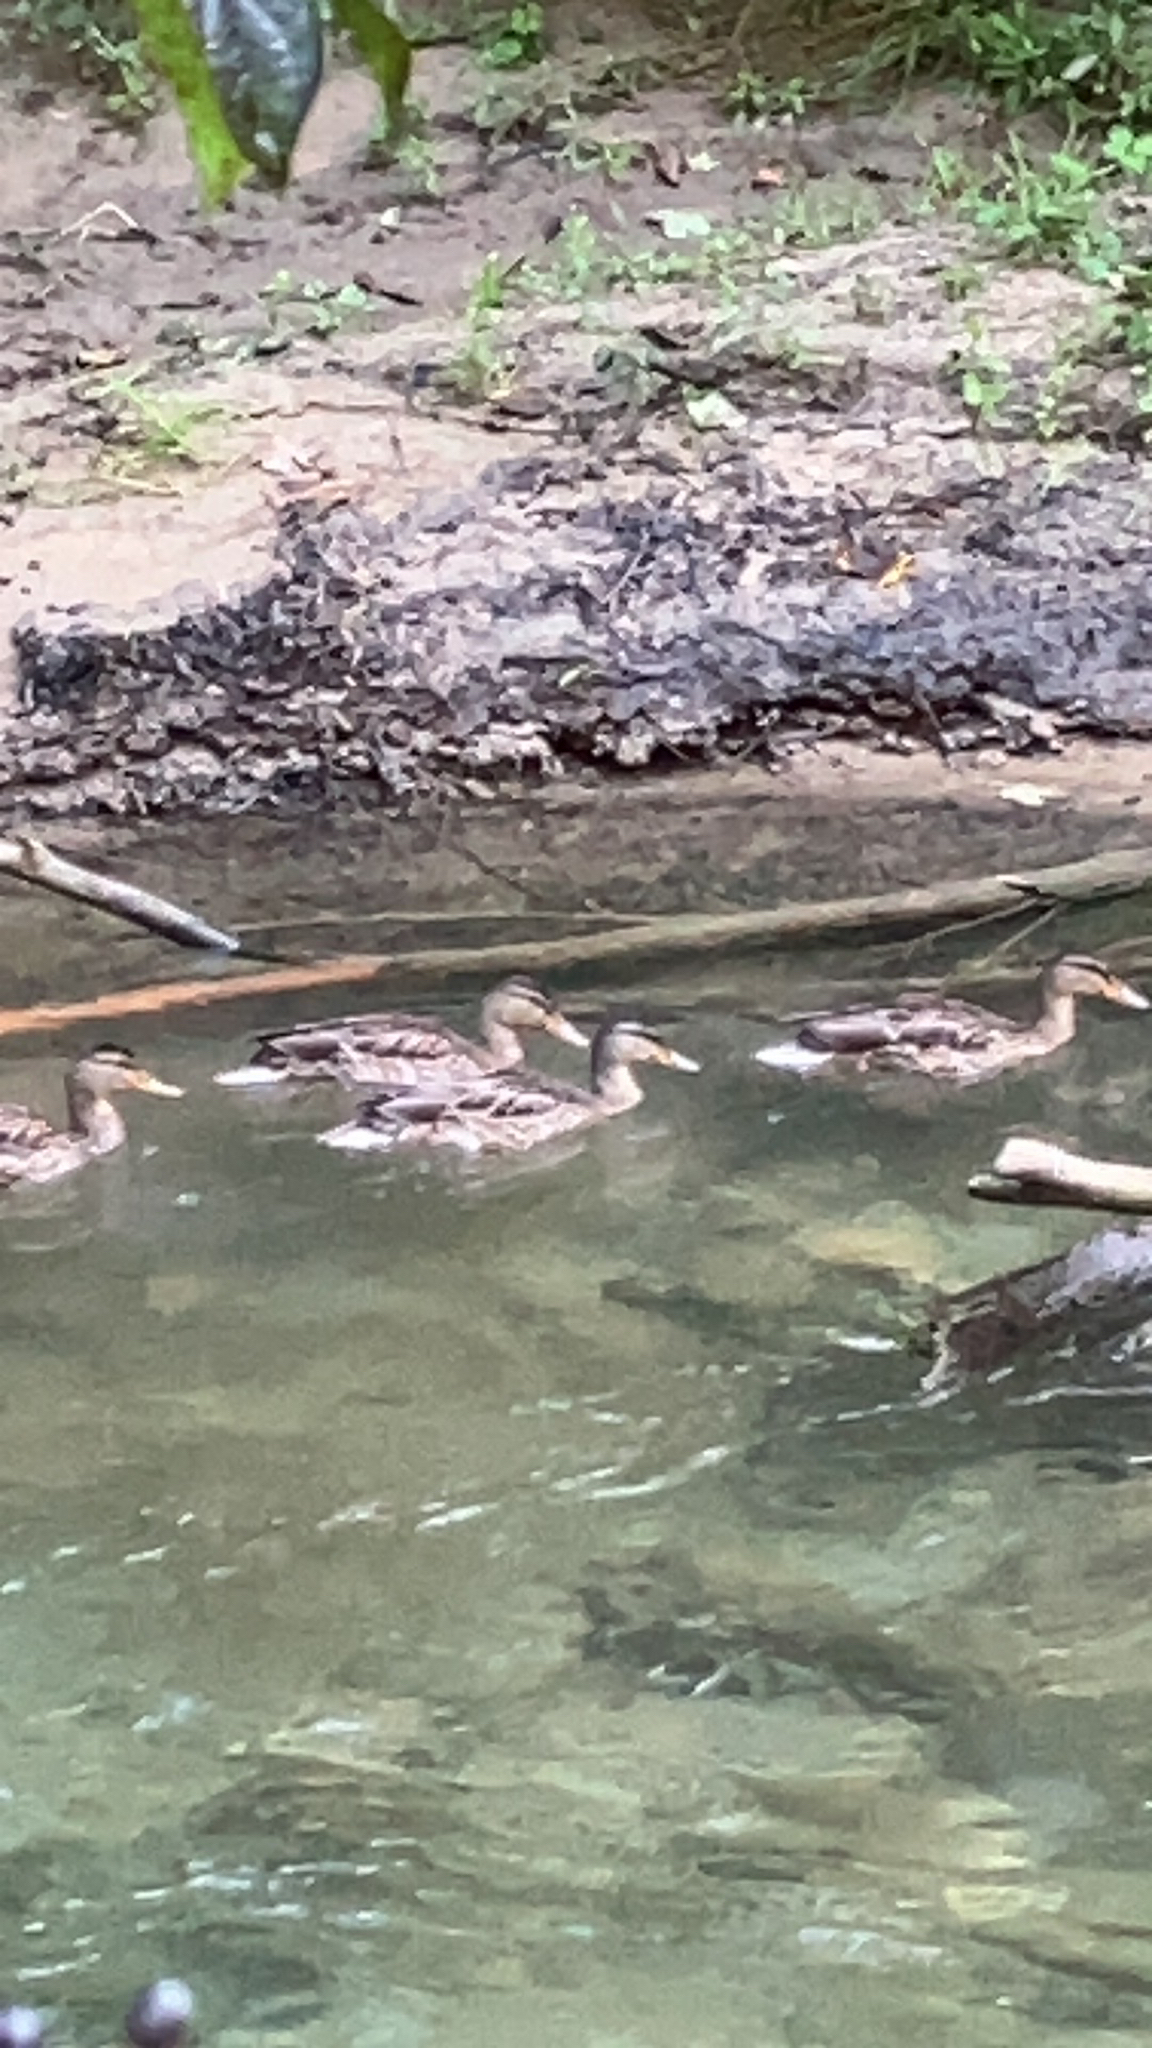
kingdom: Animalia
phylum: Chordata
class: Aves
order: Anseriformes
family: Anatidae
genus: Anas
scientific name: Anas platyrhynchos
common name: Mallard
